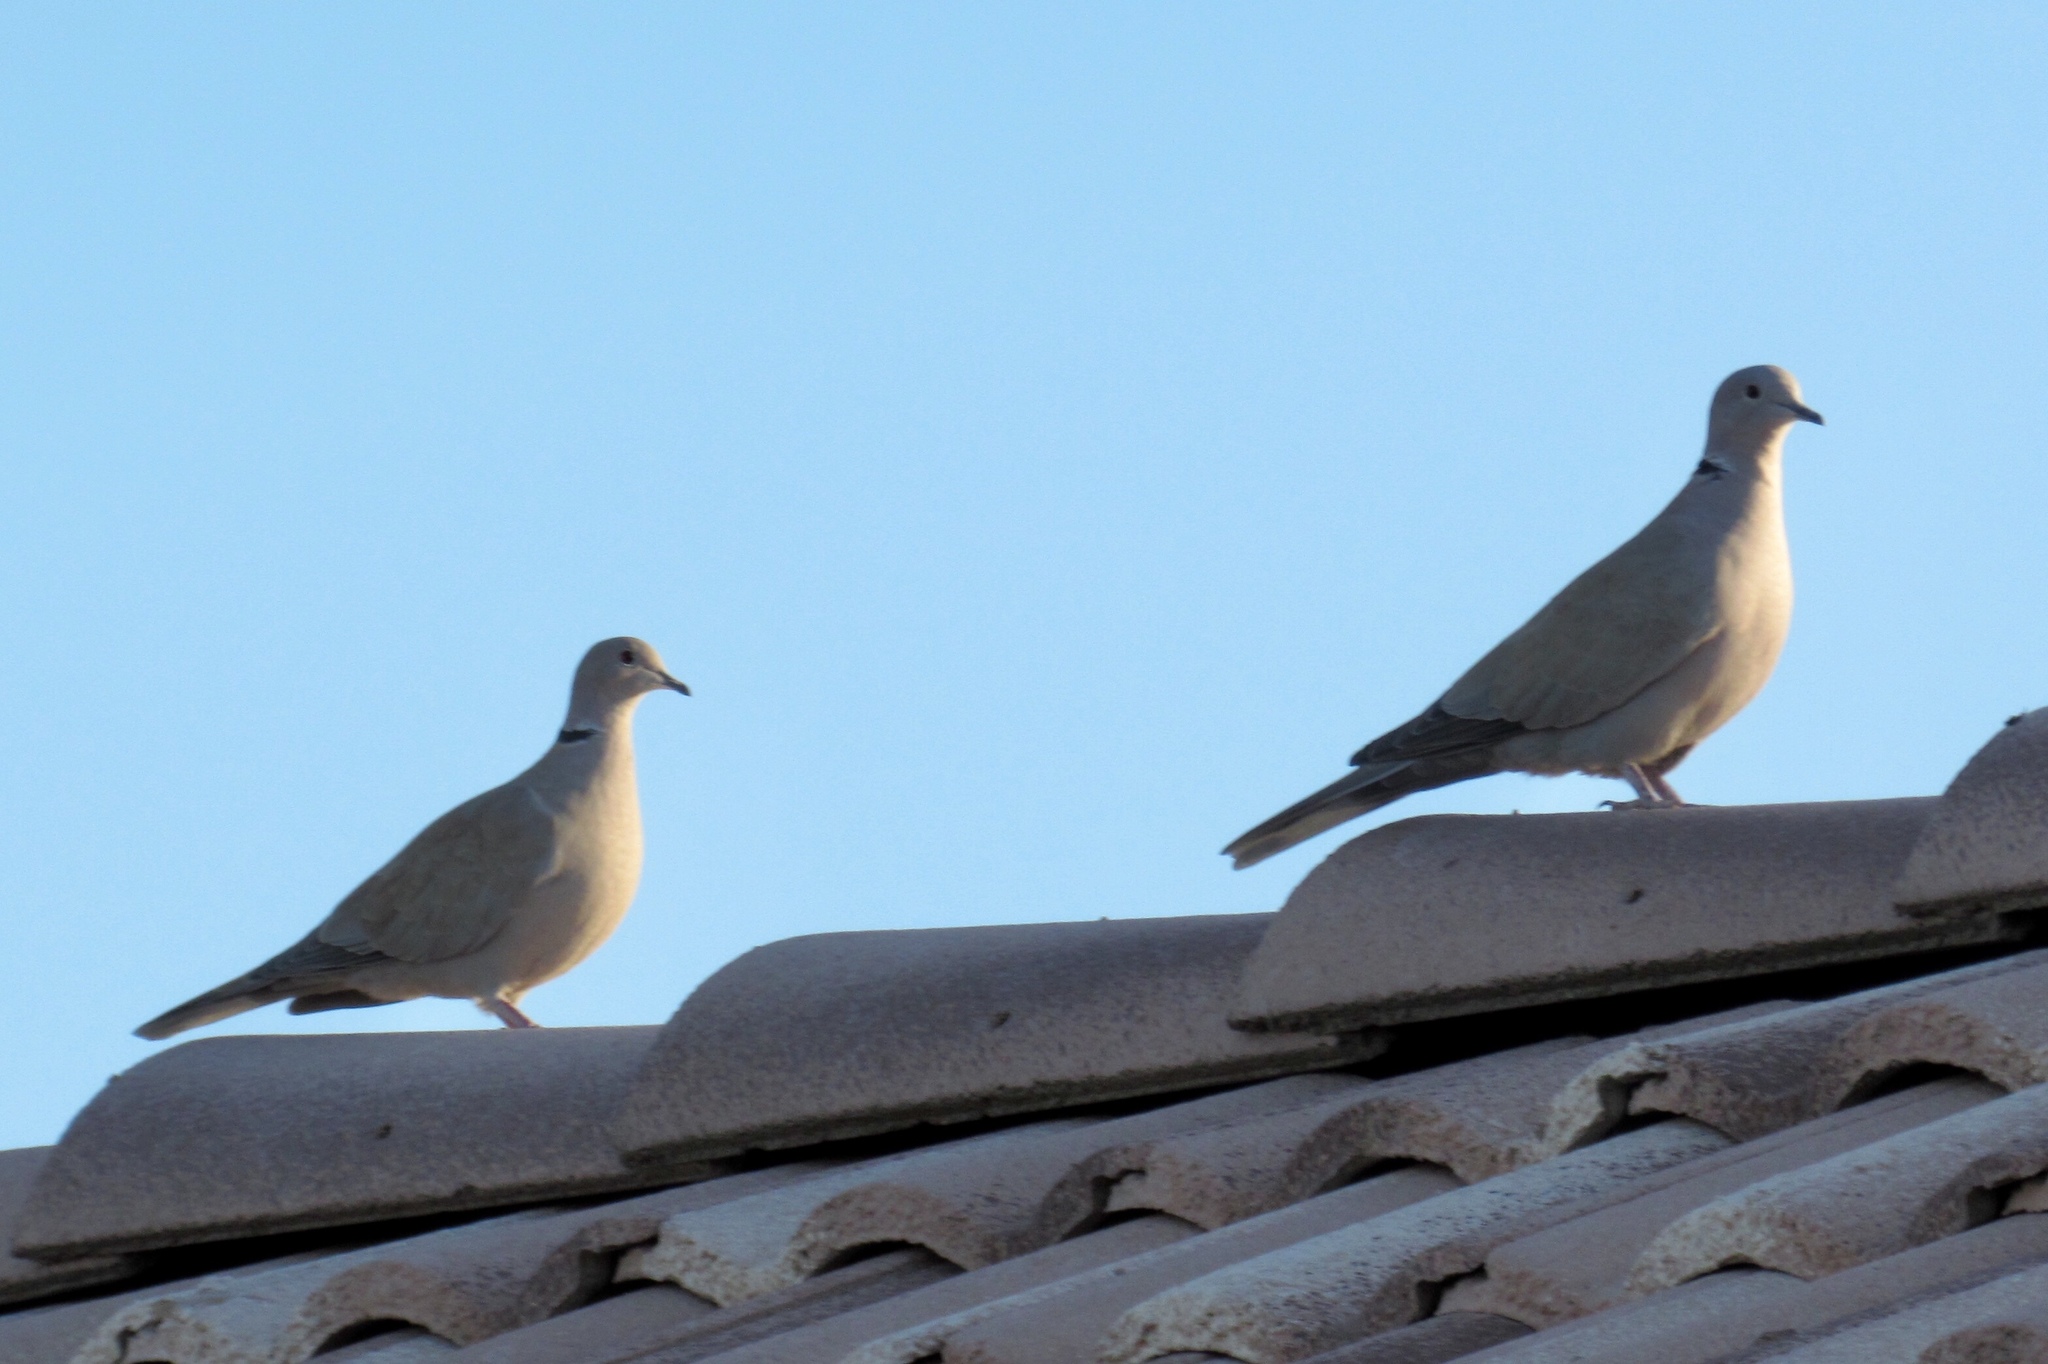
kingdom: Animalia
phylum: Chordata
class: Aves
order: Columbiformes
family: Columbidae
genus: Streptopelia
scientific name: Streptopelia decaocto
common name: Eurasian collared dove
